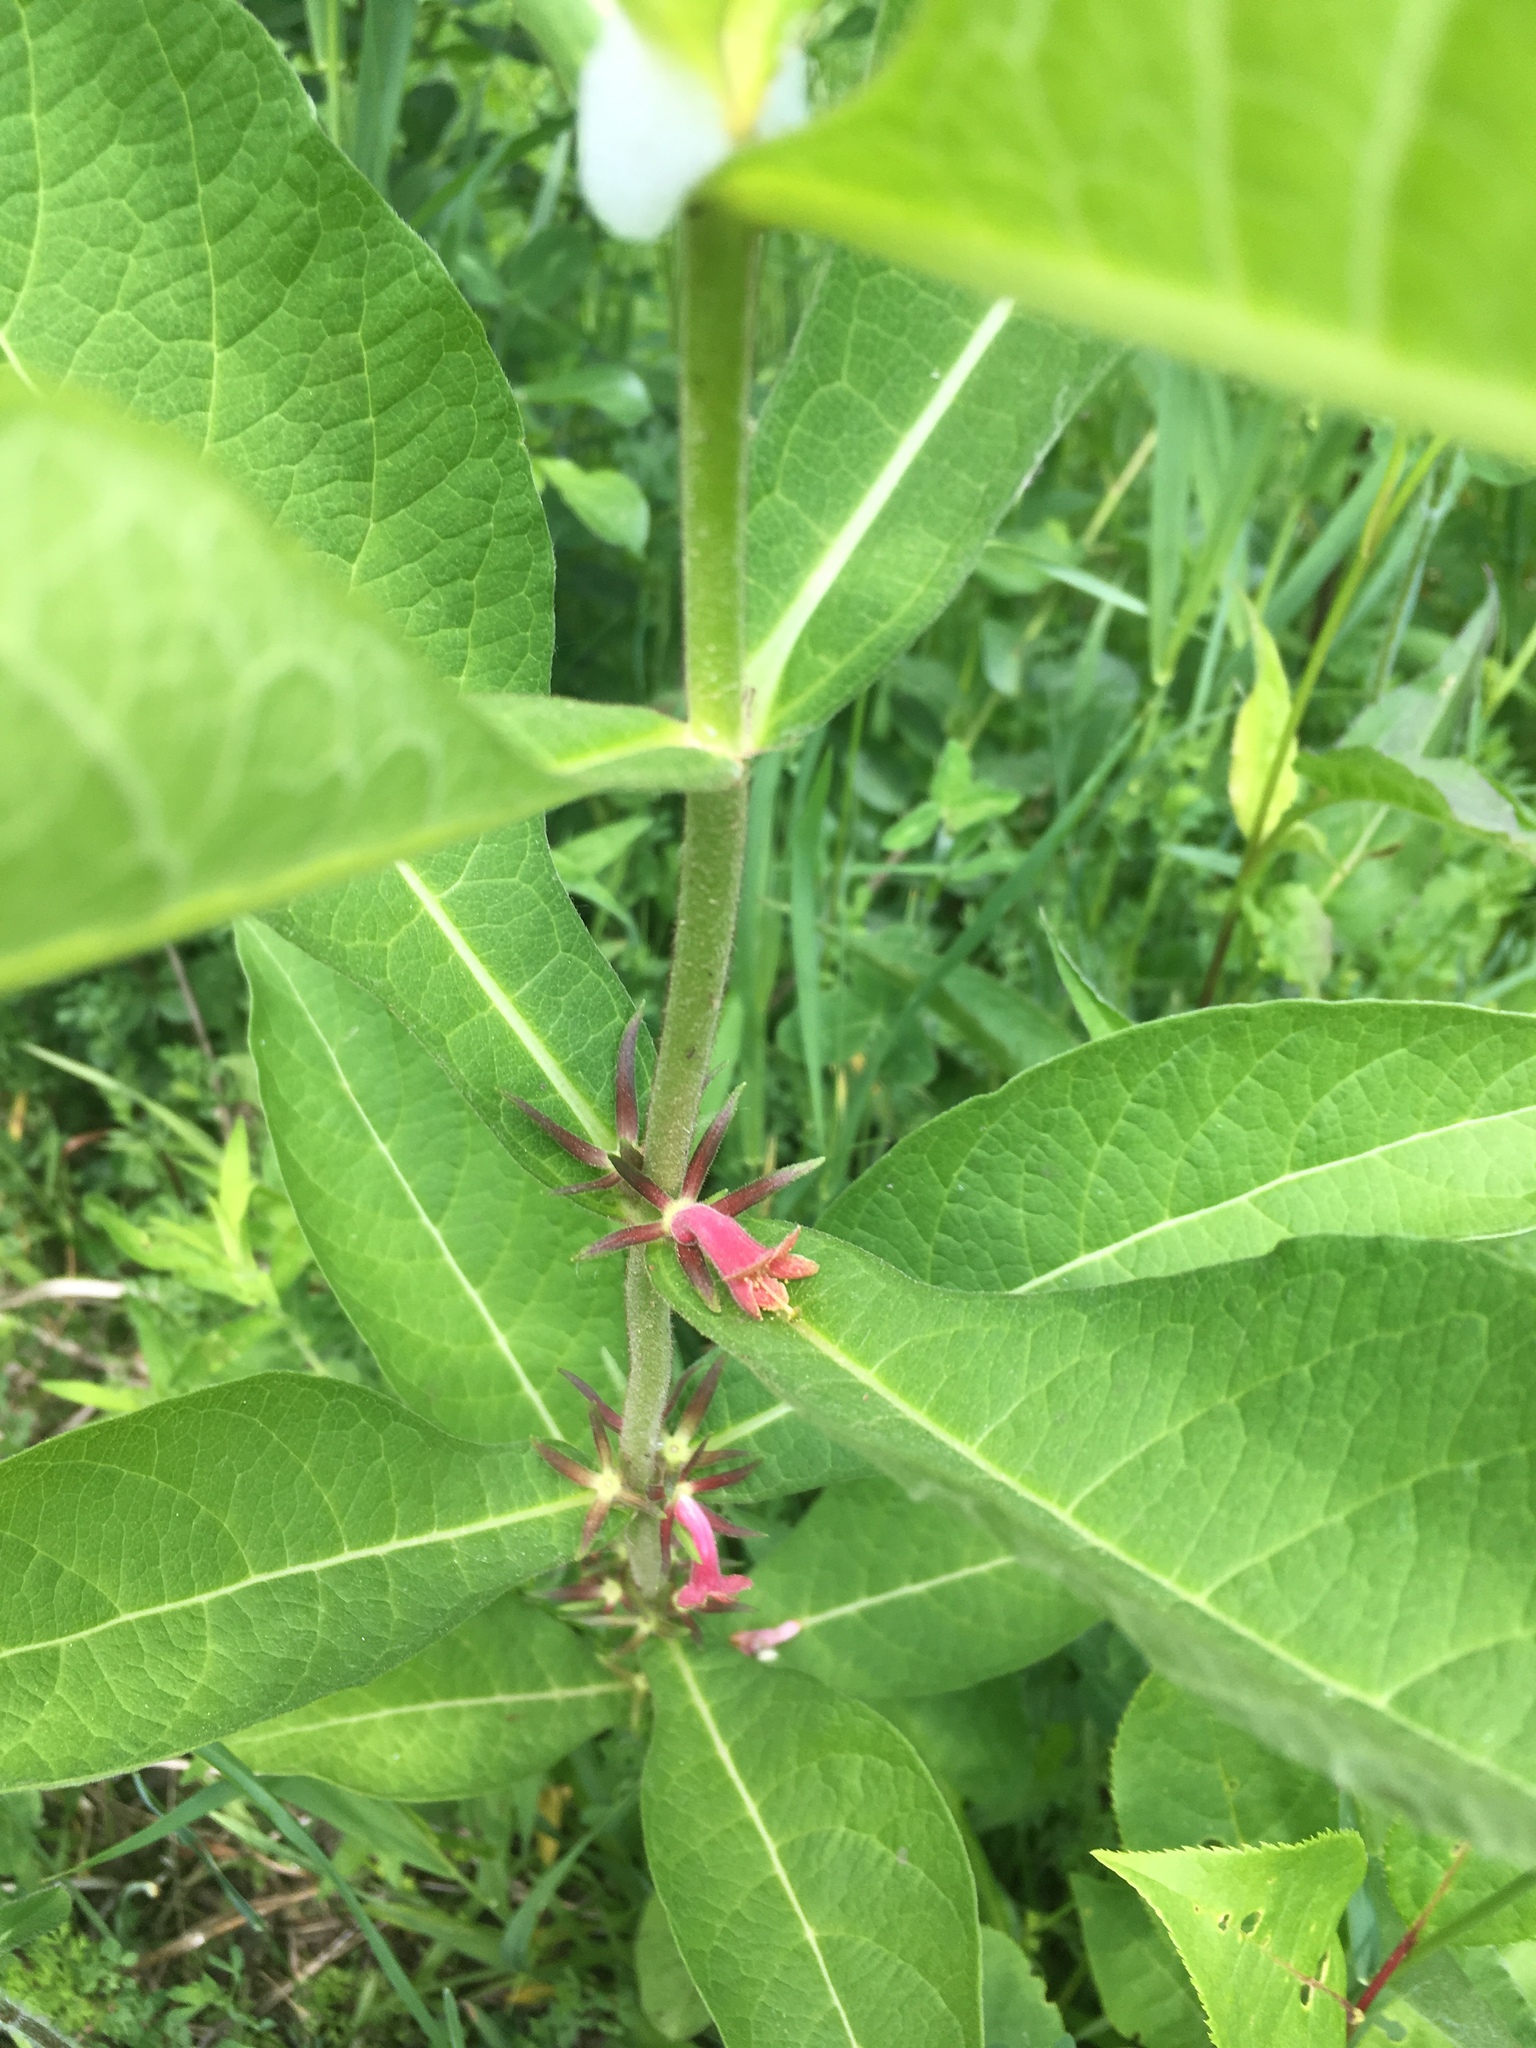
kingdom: Plantae
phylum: Tracheophyta
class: Magnoliopsida
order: Dipsacales
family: Caprifoliaceae
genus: Triosteum
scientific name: Triosteum aurantiacum
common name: Coffee tinker's-weed
